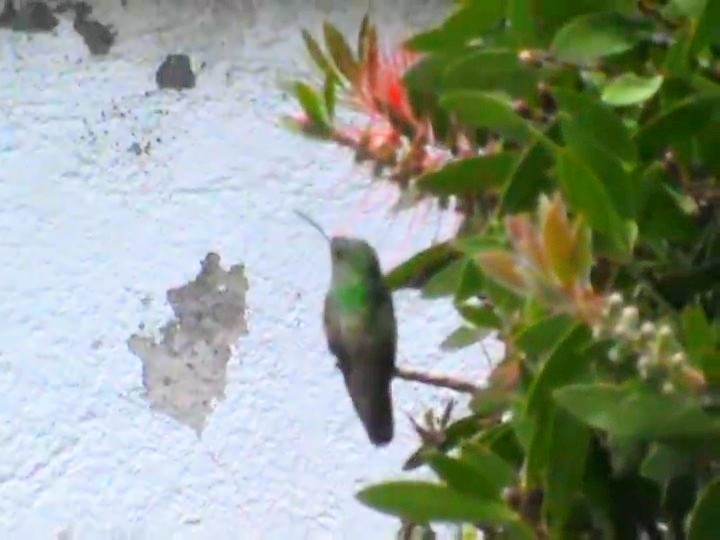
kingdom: Animalia
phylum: Chordata
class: Aves
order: Apodiformes
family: Trochilidae
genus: Saucerottia
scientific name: Saucerottia beryllina
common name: Berylline hummingbird
